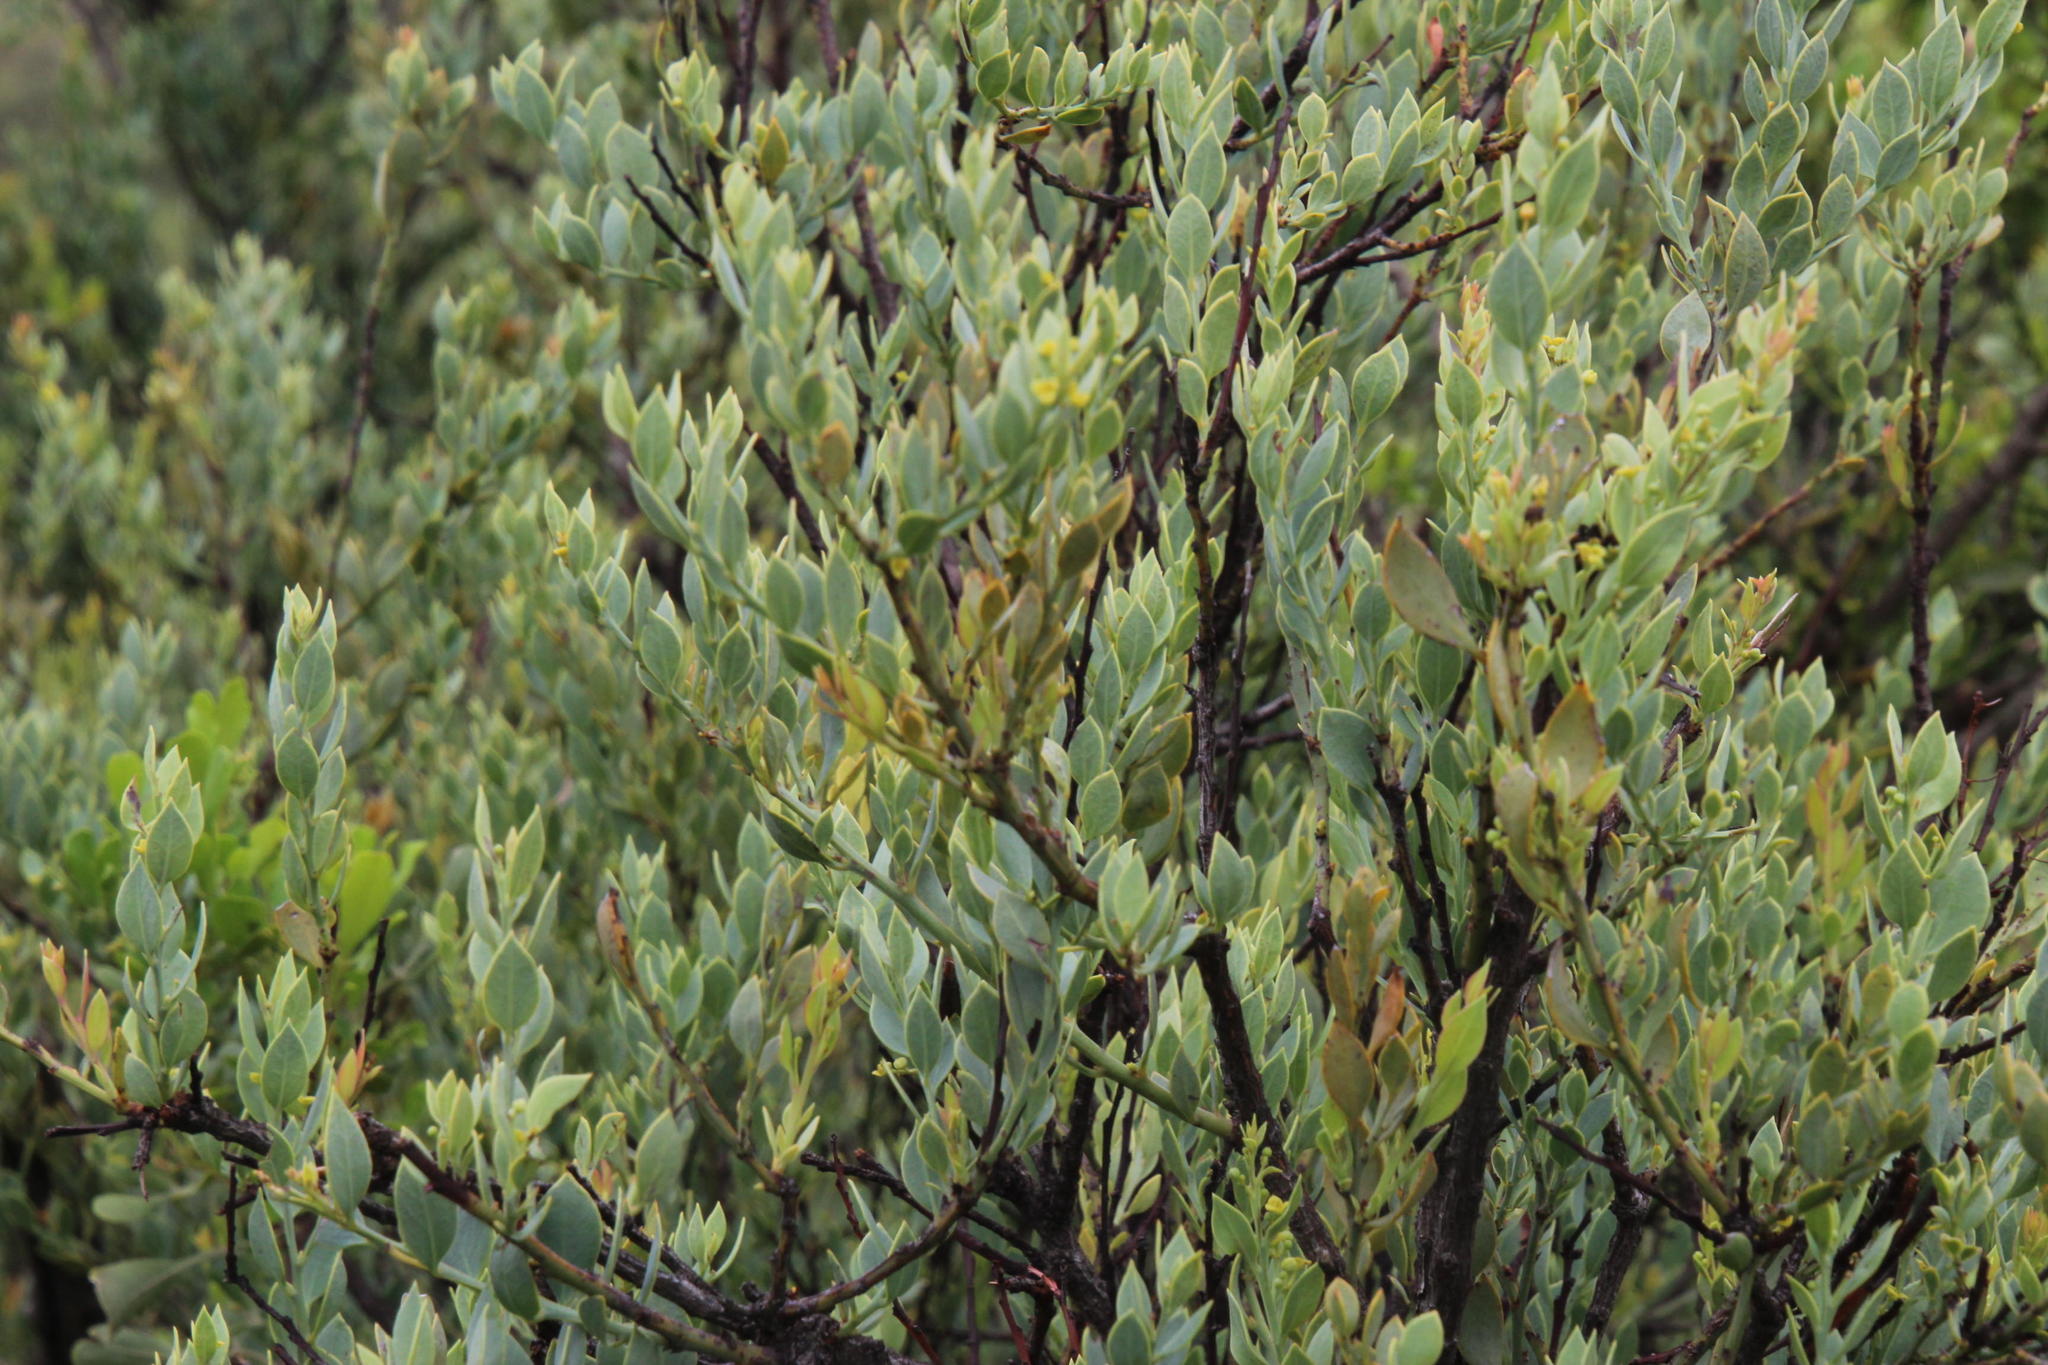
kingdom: Plantae
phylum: Tracheophyta
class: Magnoliopsida
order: Santalales
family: Santalaceae
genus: Osyris
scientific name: Osyris lanceolata
